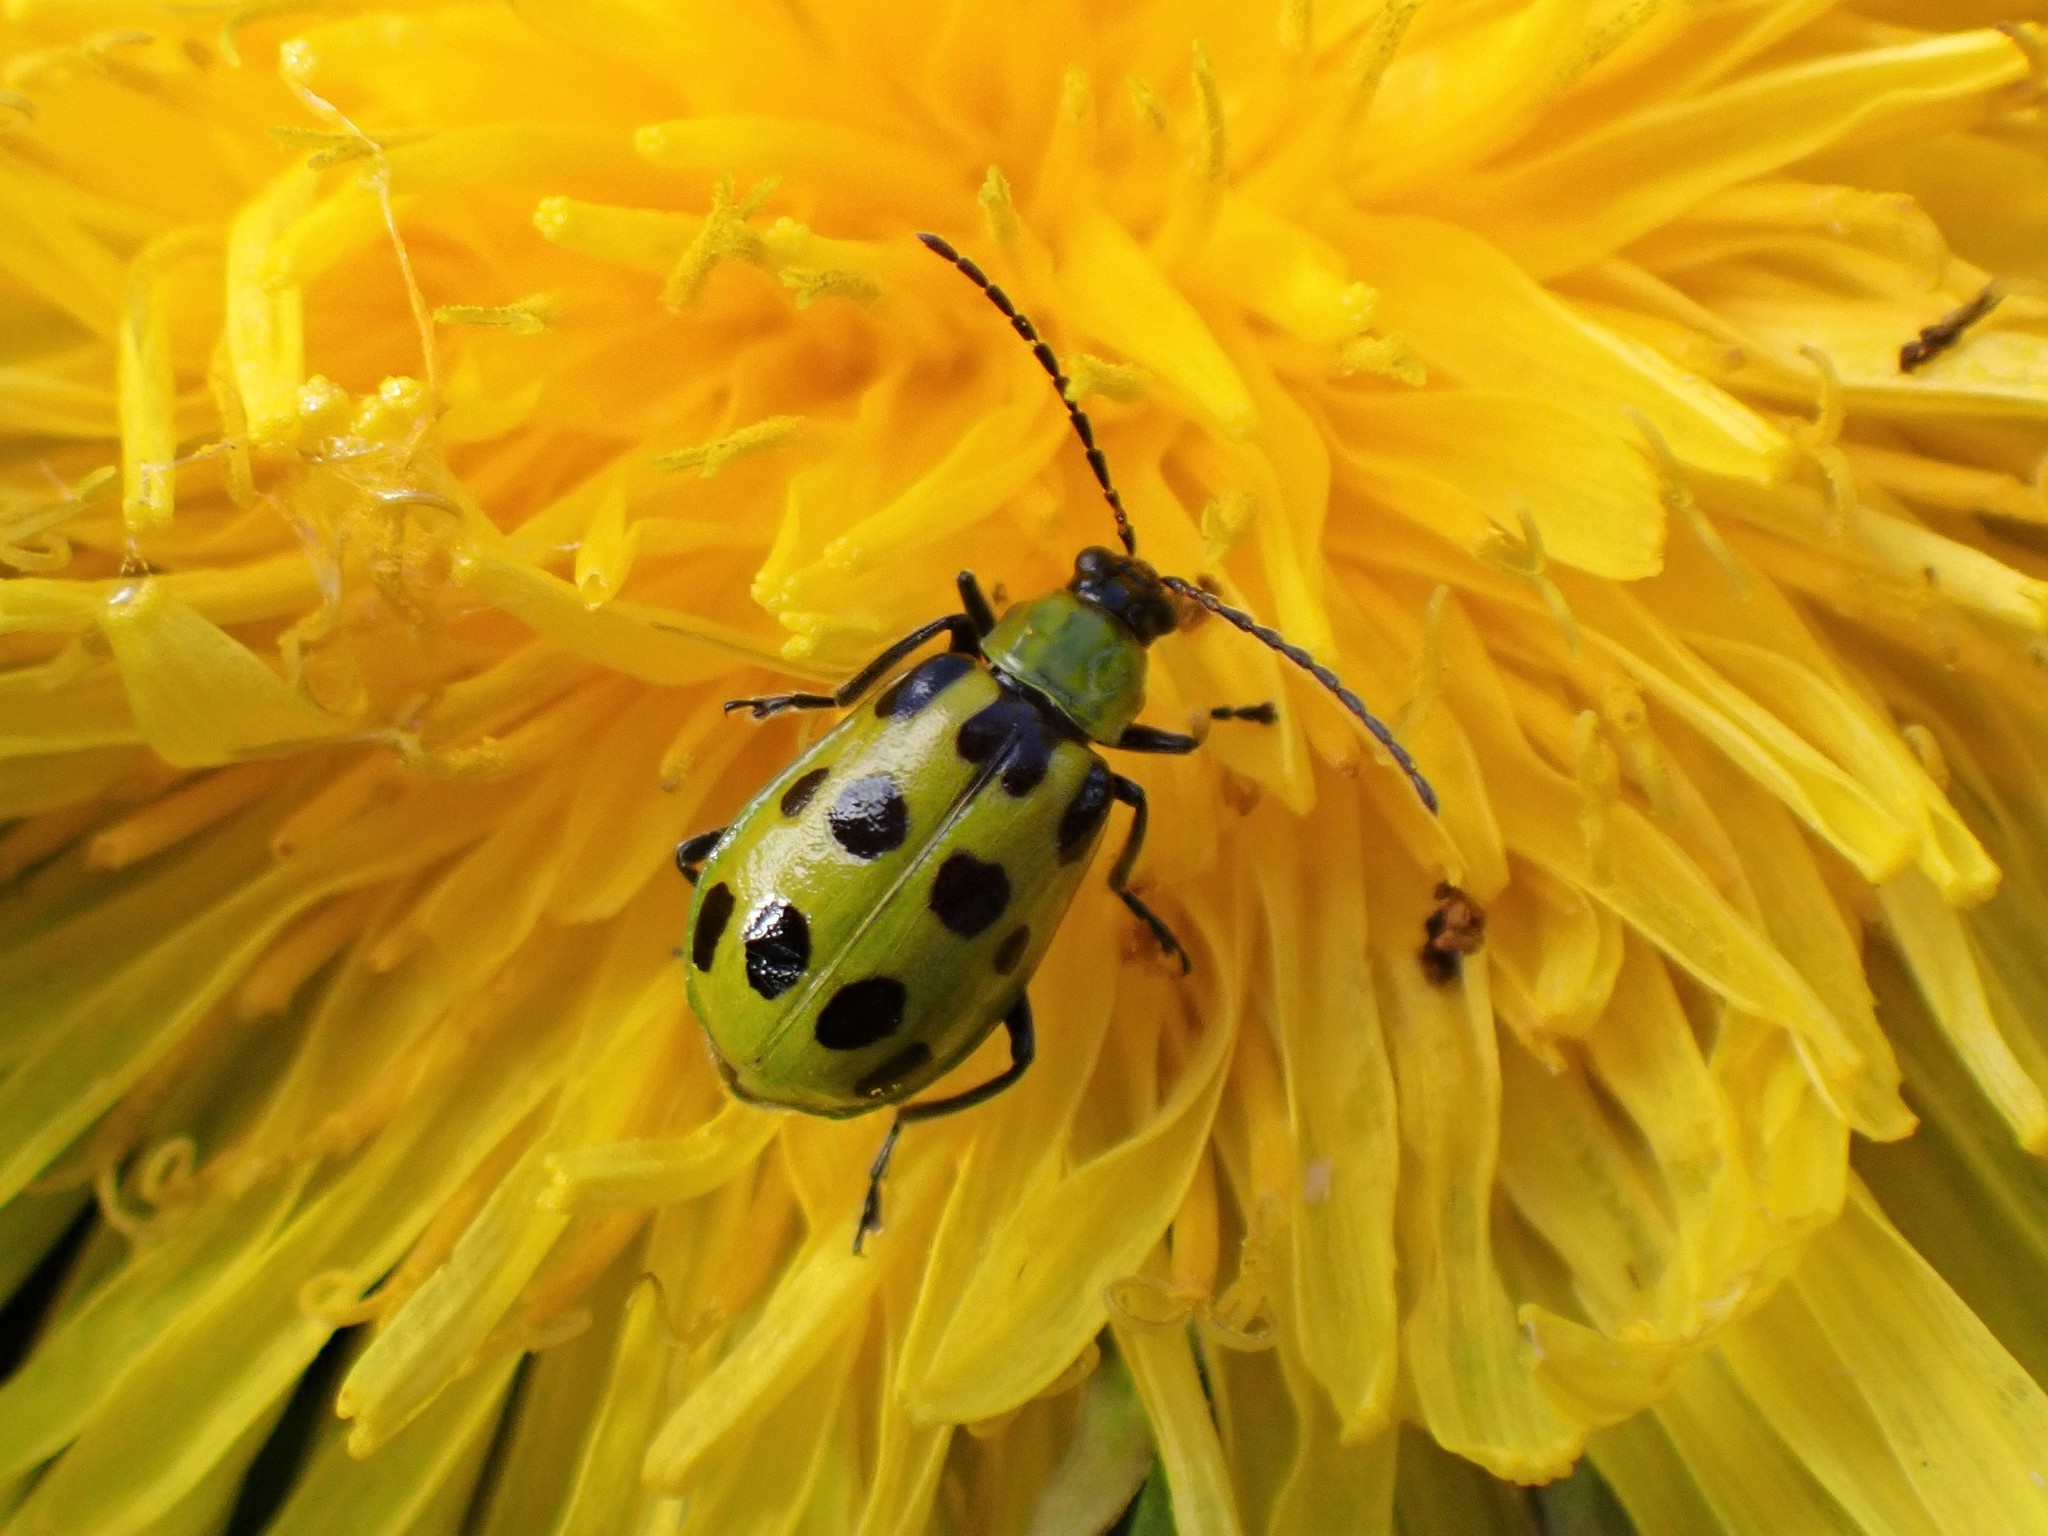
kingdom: Animalia
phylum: Arthropoda
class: Insecta
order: Coleoptera
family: Chrysomelidae
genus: Diabrotica
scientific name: Diabrotica undecimpunctata
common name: Spotted cucumber beetle
